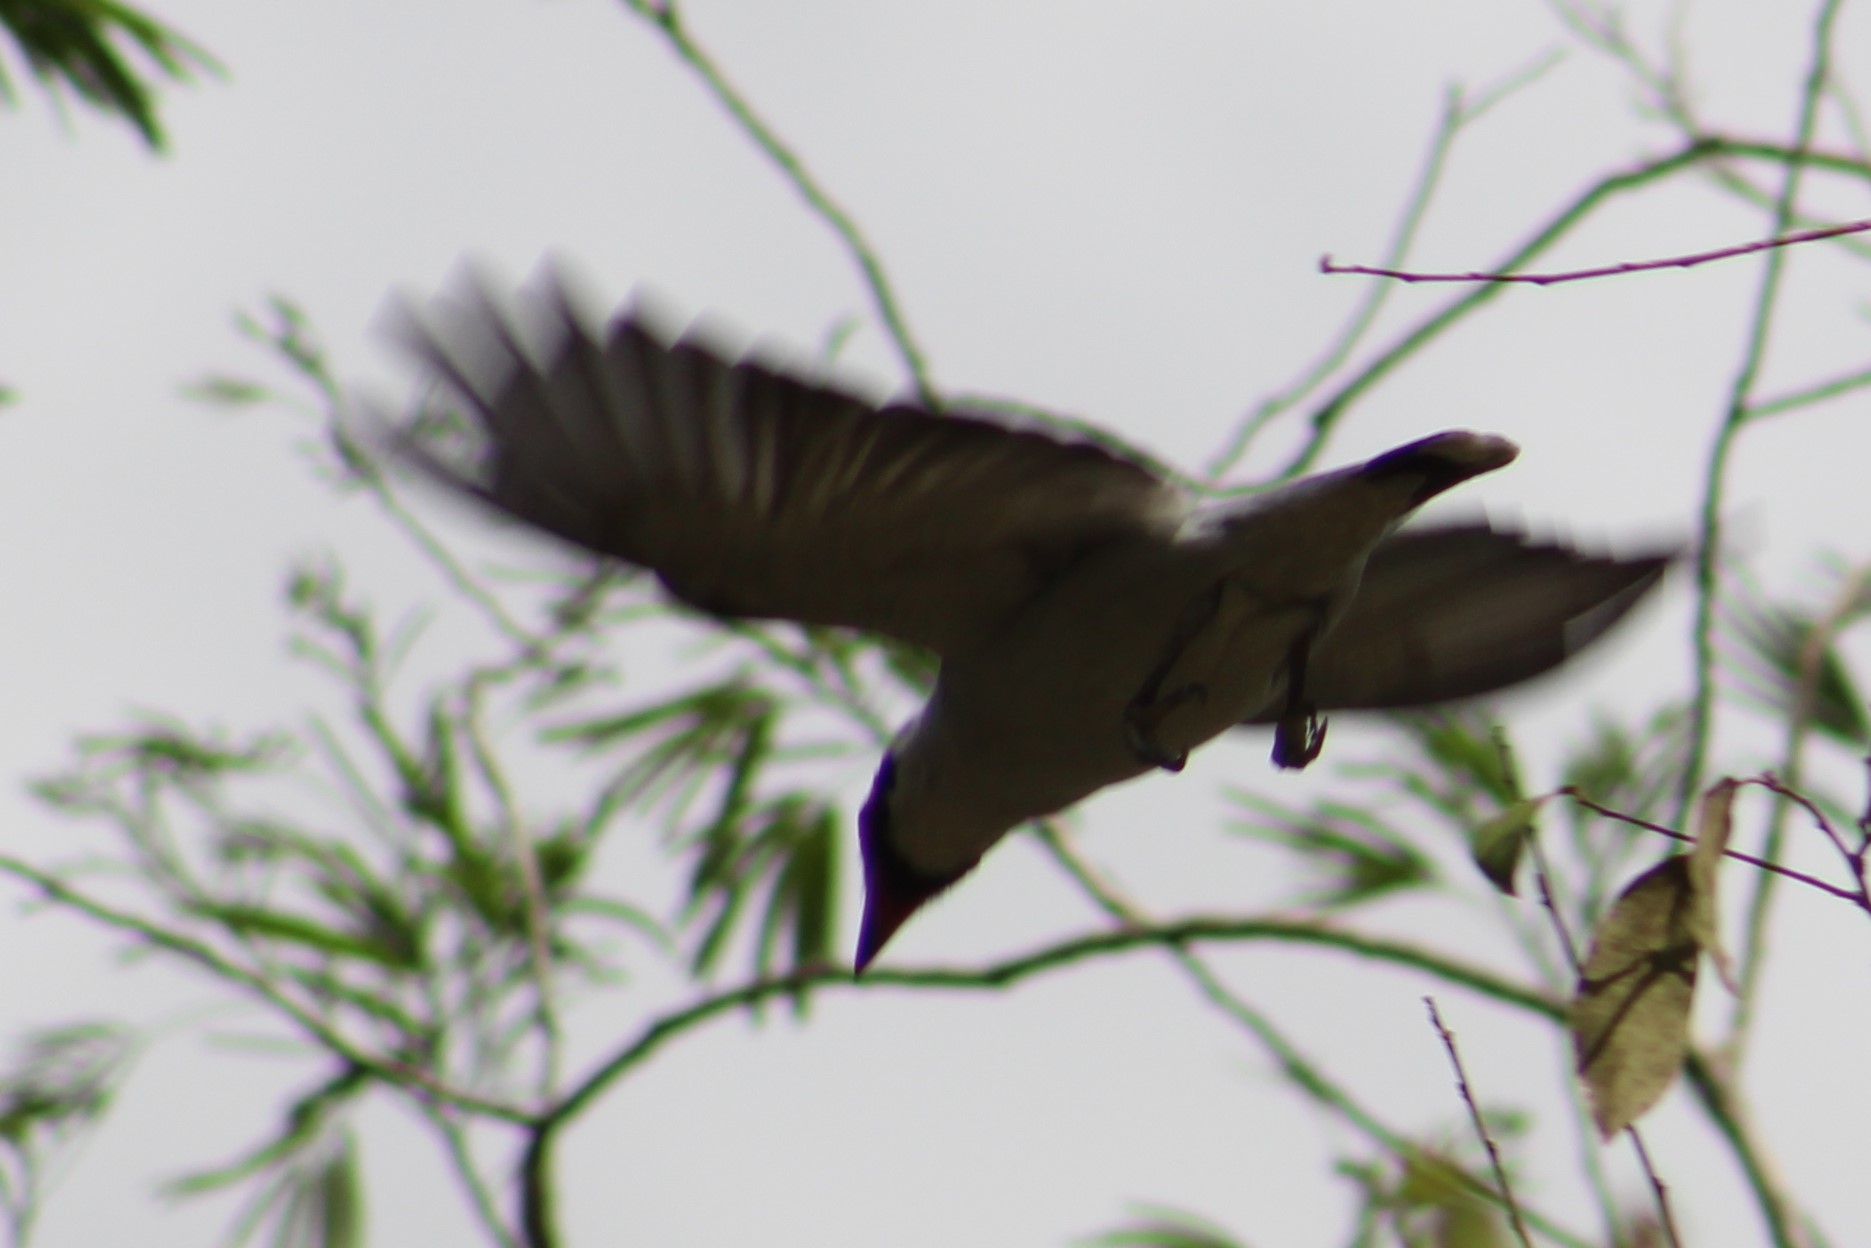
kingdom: Animalia
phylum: Chordata
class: Aves
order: Passeriformes
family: Cotingidae
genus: Tityra
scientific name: Tityra semifasciata
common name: Masked tityra
